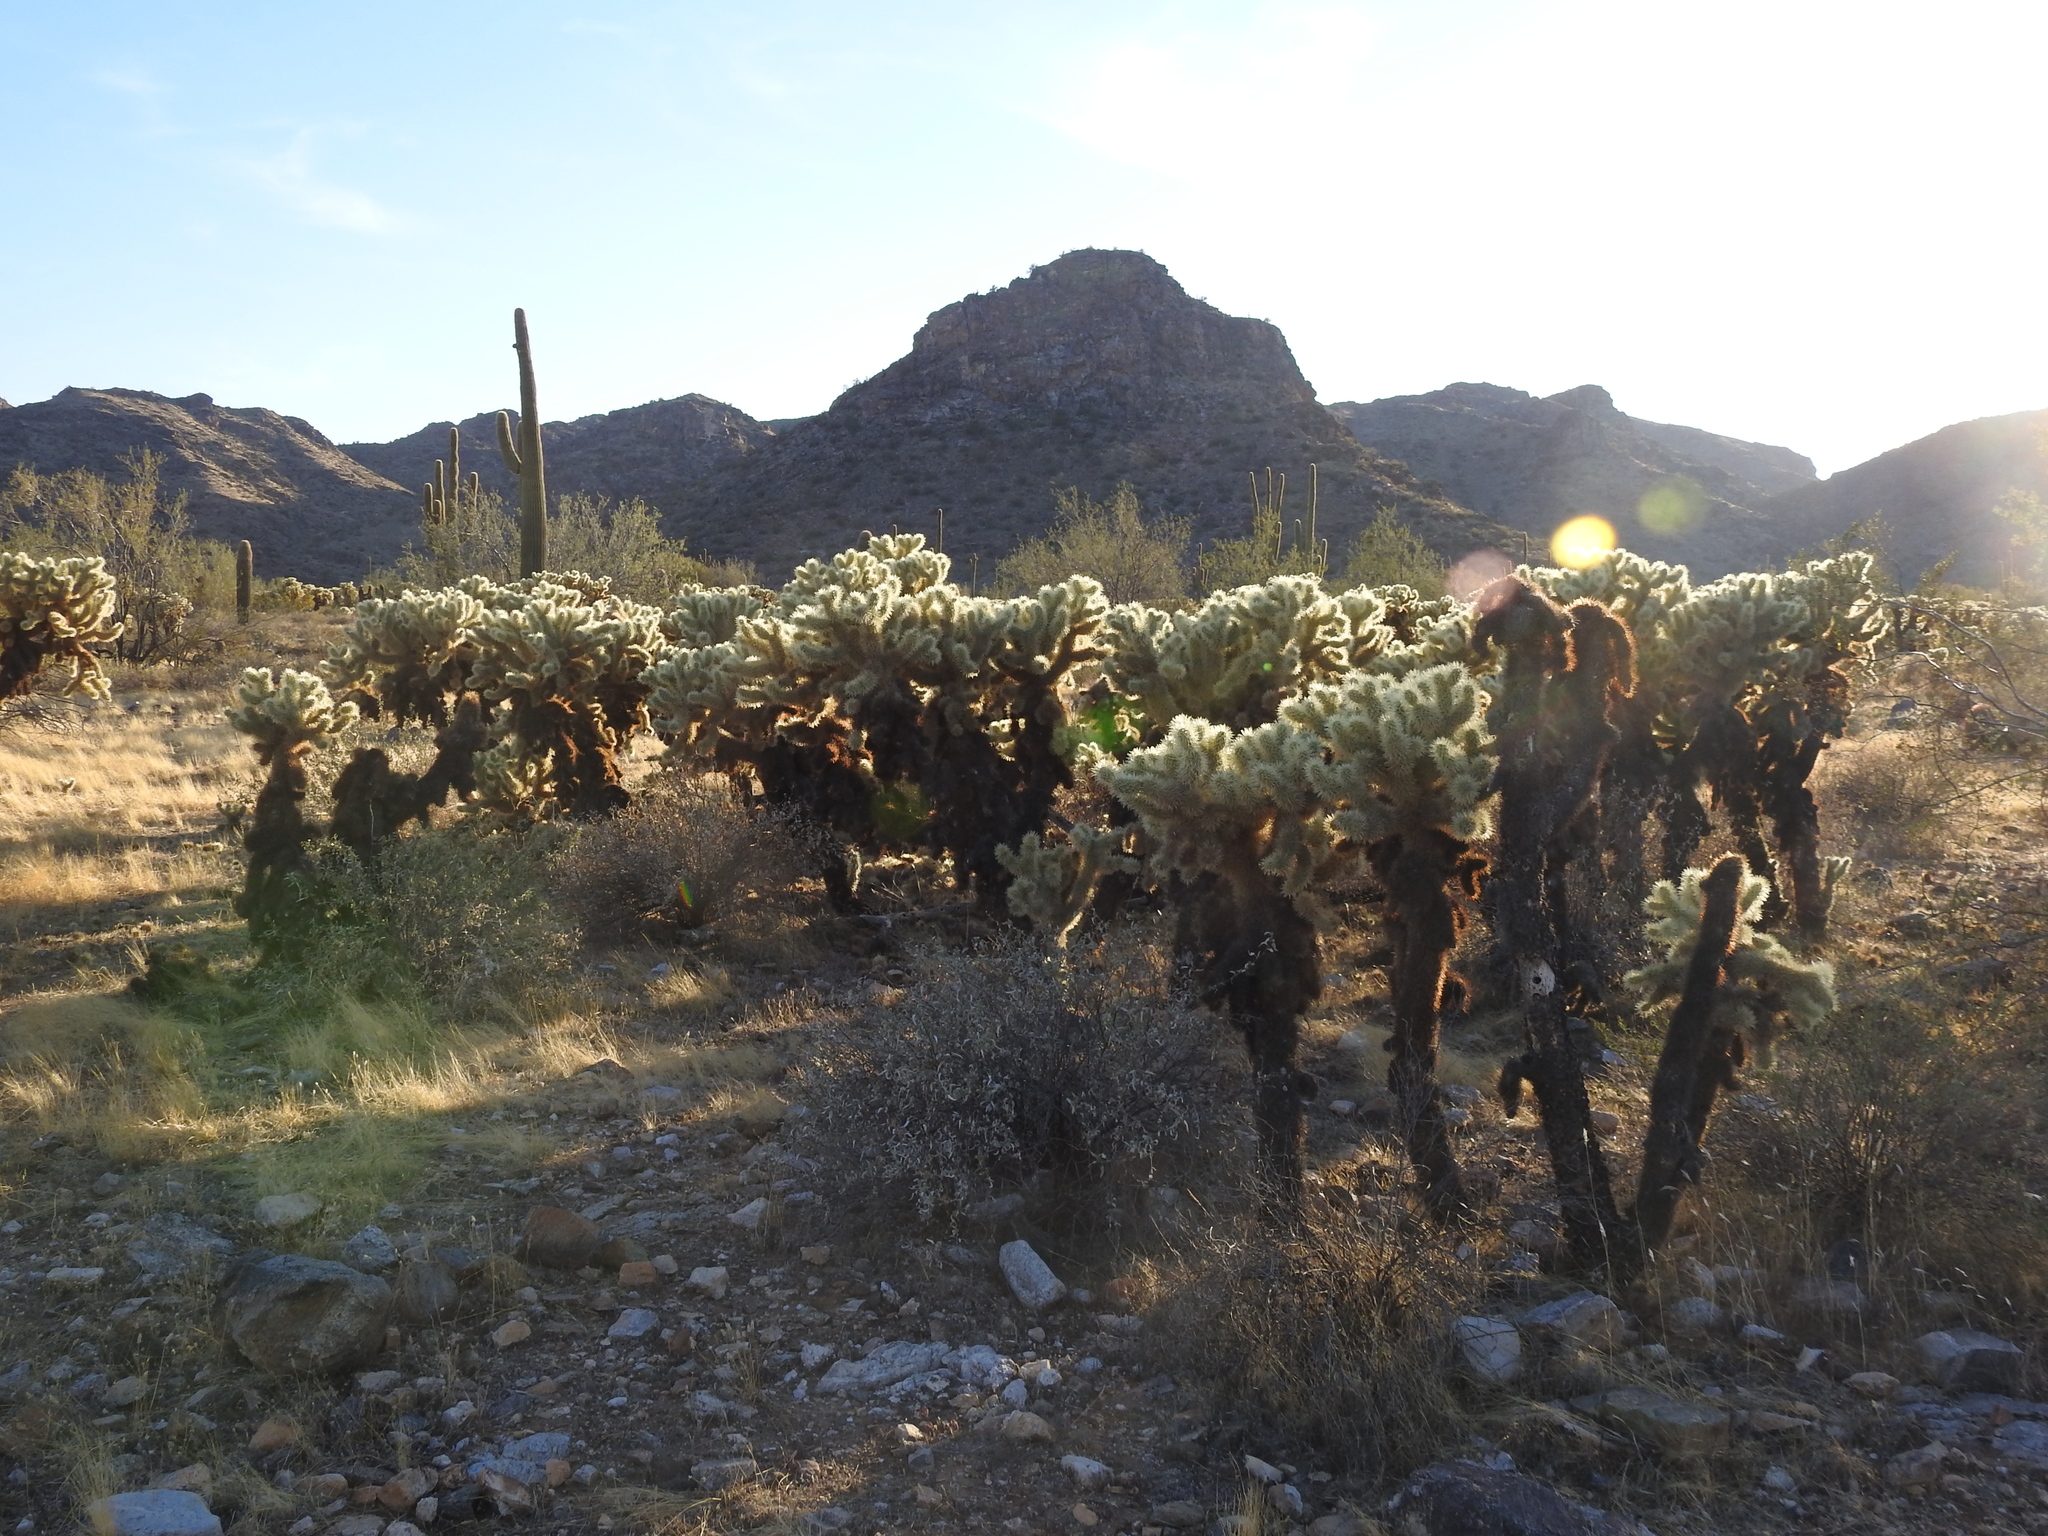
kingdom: Plantae
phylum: Tracheophyta
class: Magnoliopsida
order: Caryophyllales
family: Cactaceae
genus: Cylindropuntia
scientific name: Cylindropuntia fosbergii
